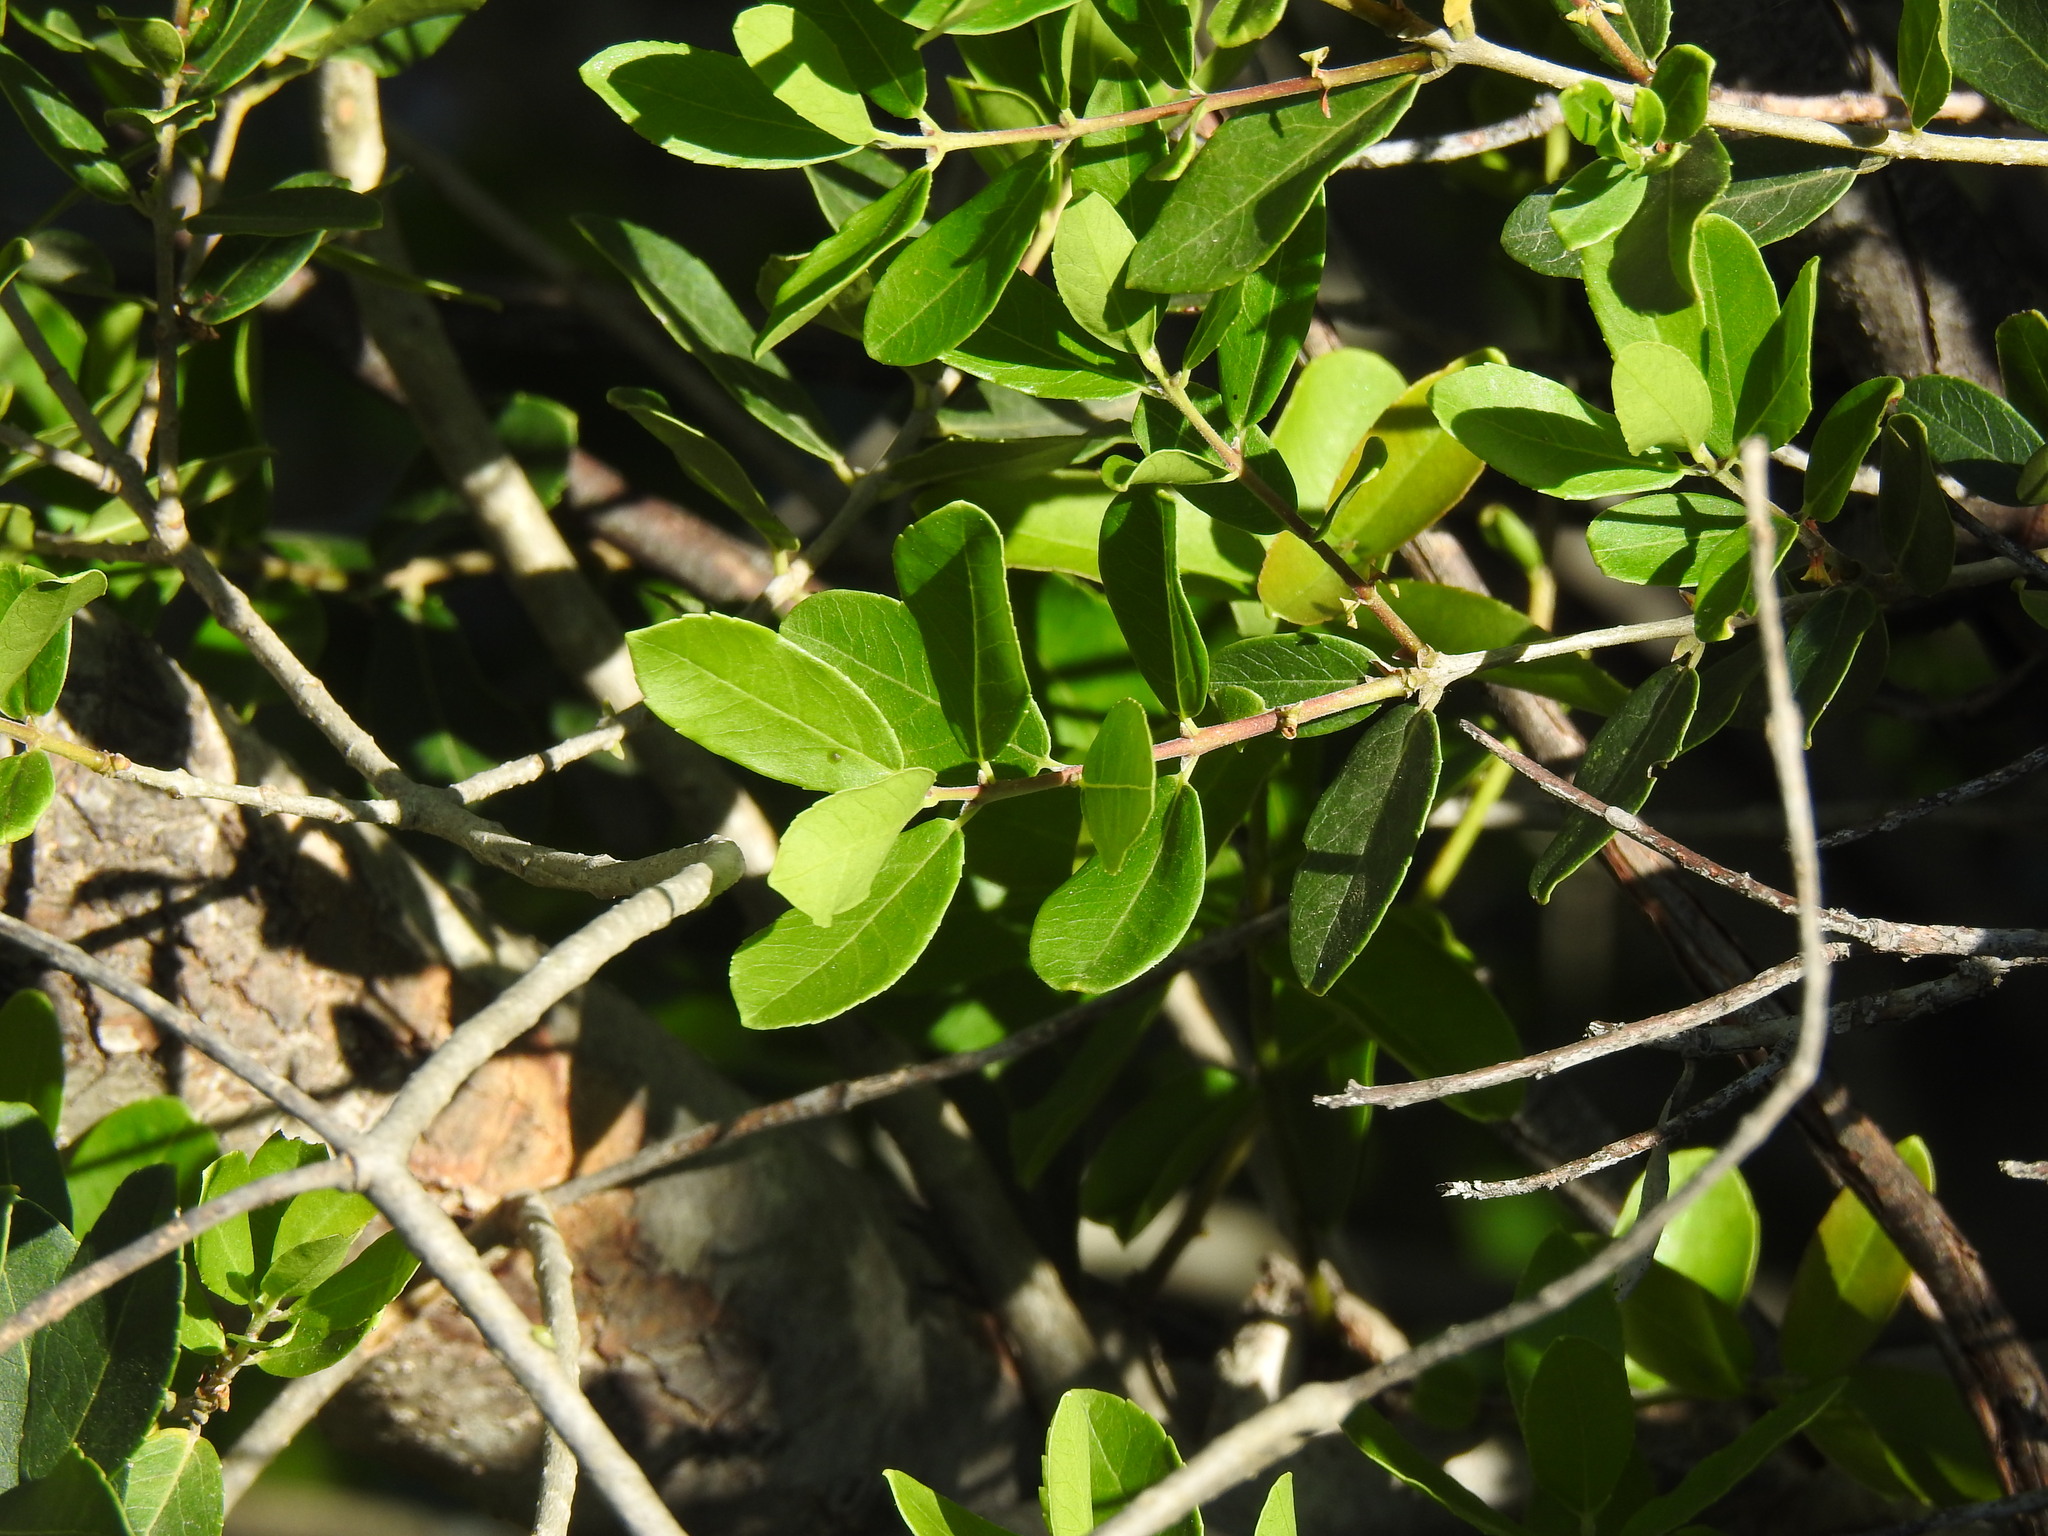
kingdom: Plantae
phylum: Tracheophyta
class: Magnoliopsida
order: Rosales
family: Rhamnaceae
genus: Rhamnus
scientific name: Rhamnus alaternus
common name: Mediterranean buckthorn
